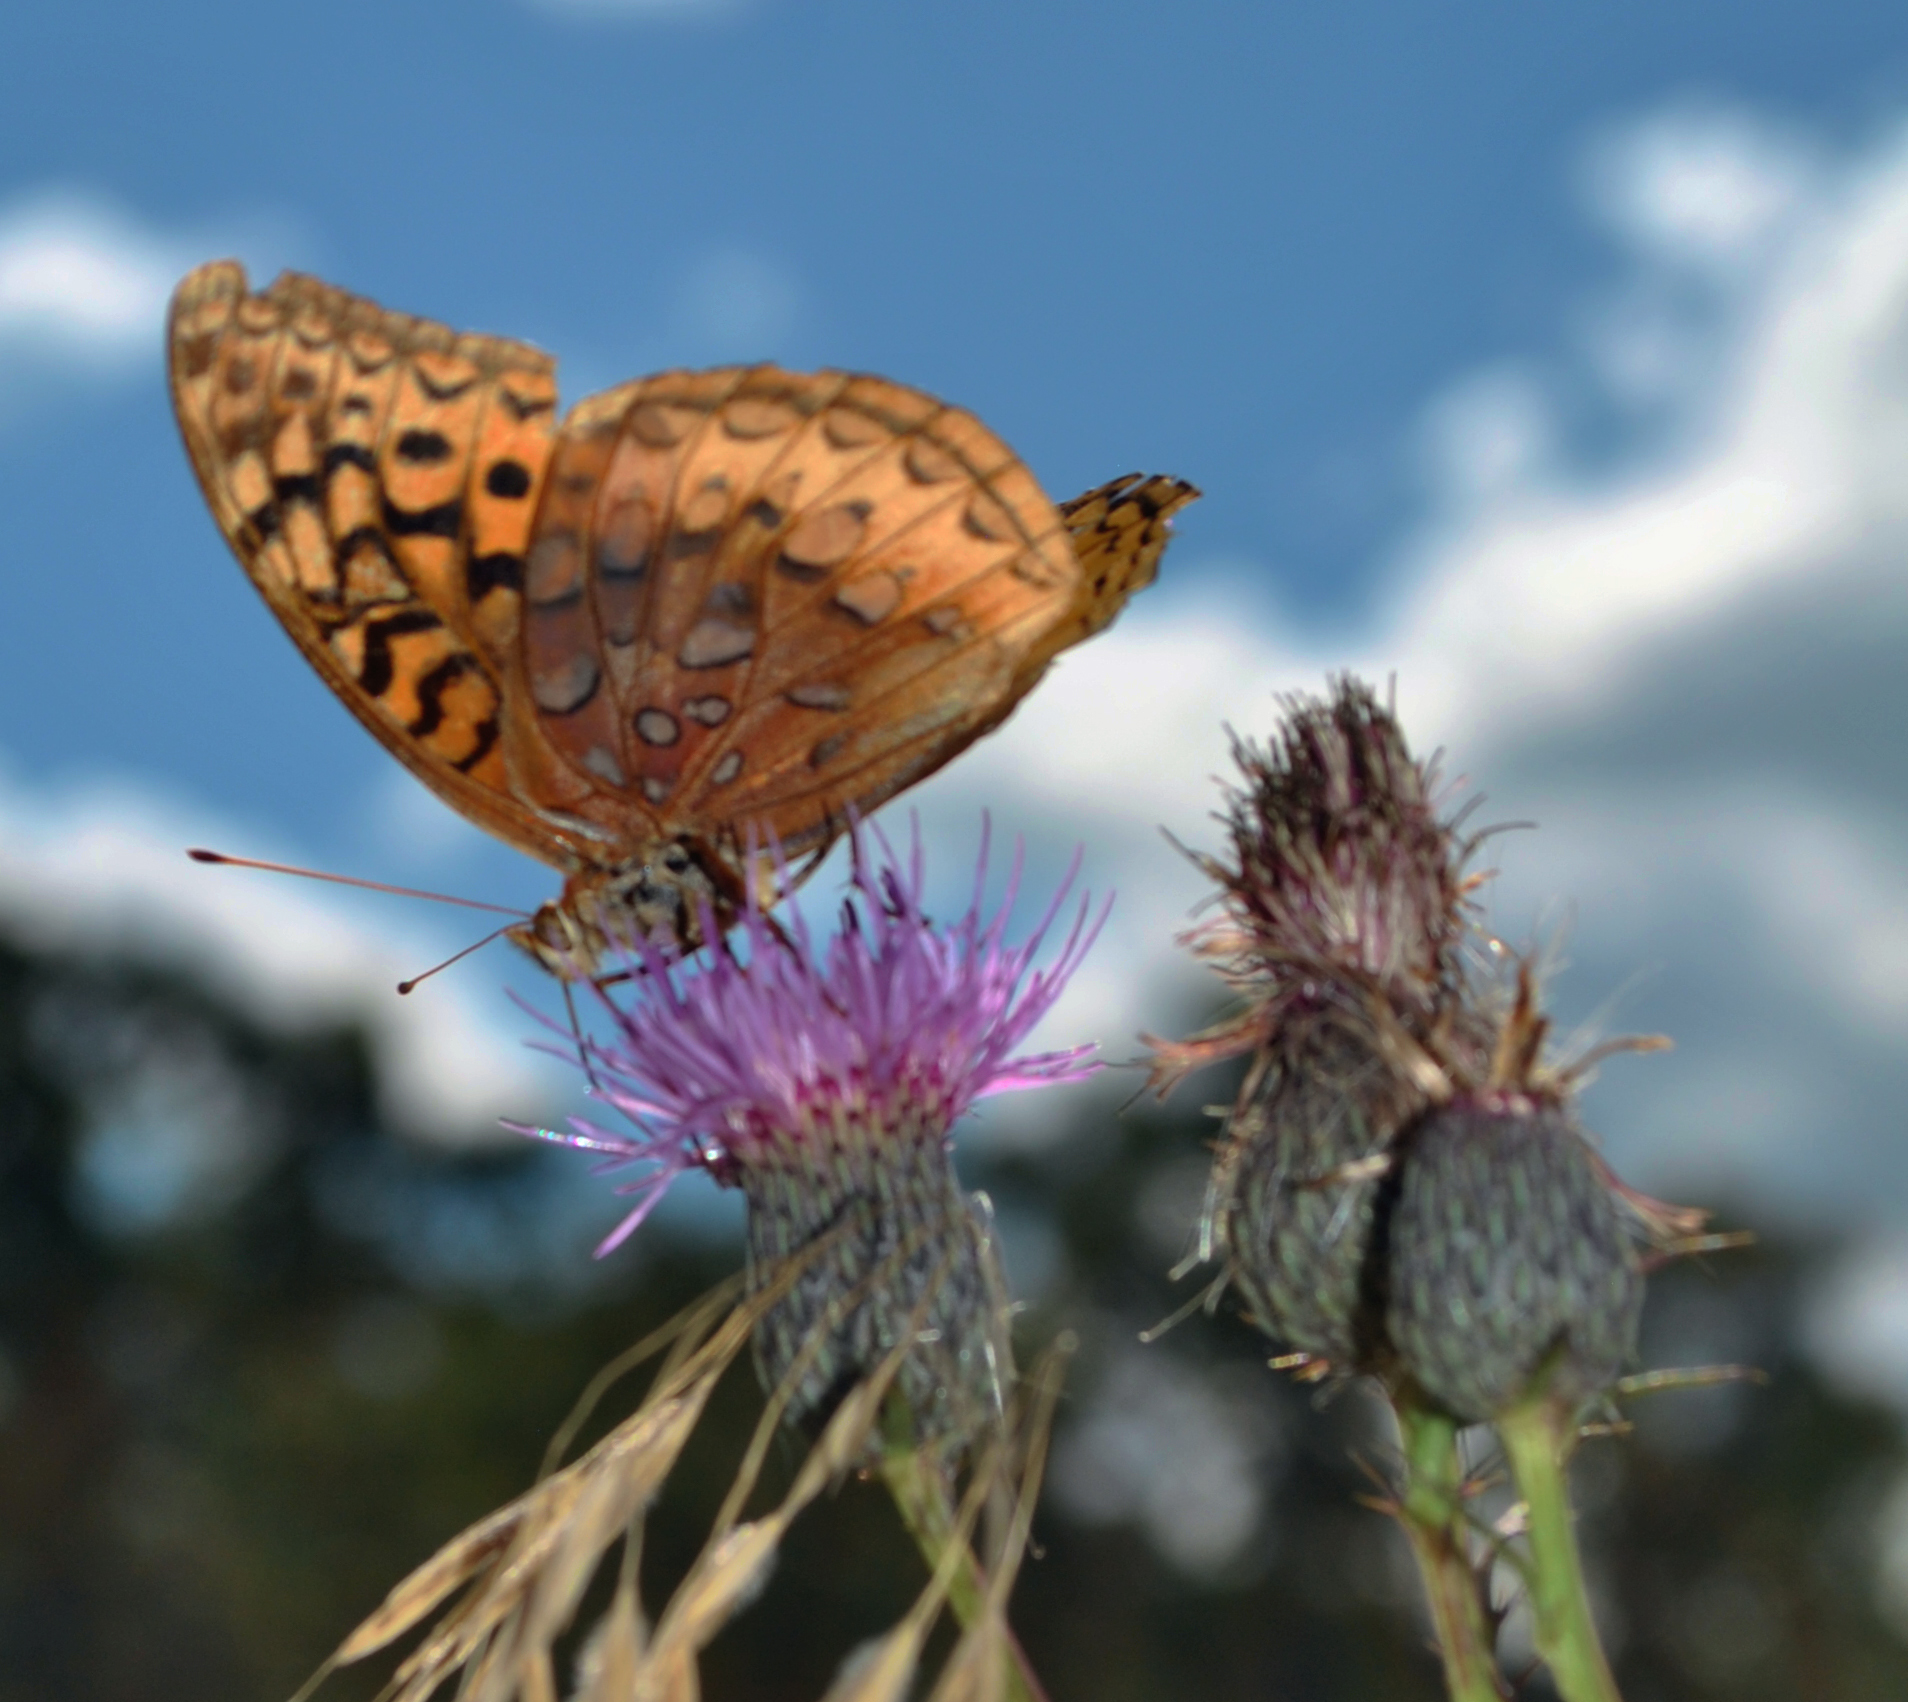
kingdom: Animalia
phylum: Arthropoda
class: Insecta
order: Lepidoptera
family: Nymphalidae
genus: Speyeria
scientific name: Speyeria cybele
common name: Great spangled fritillary
